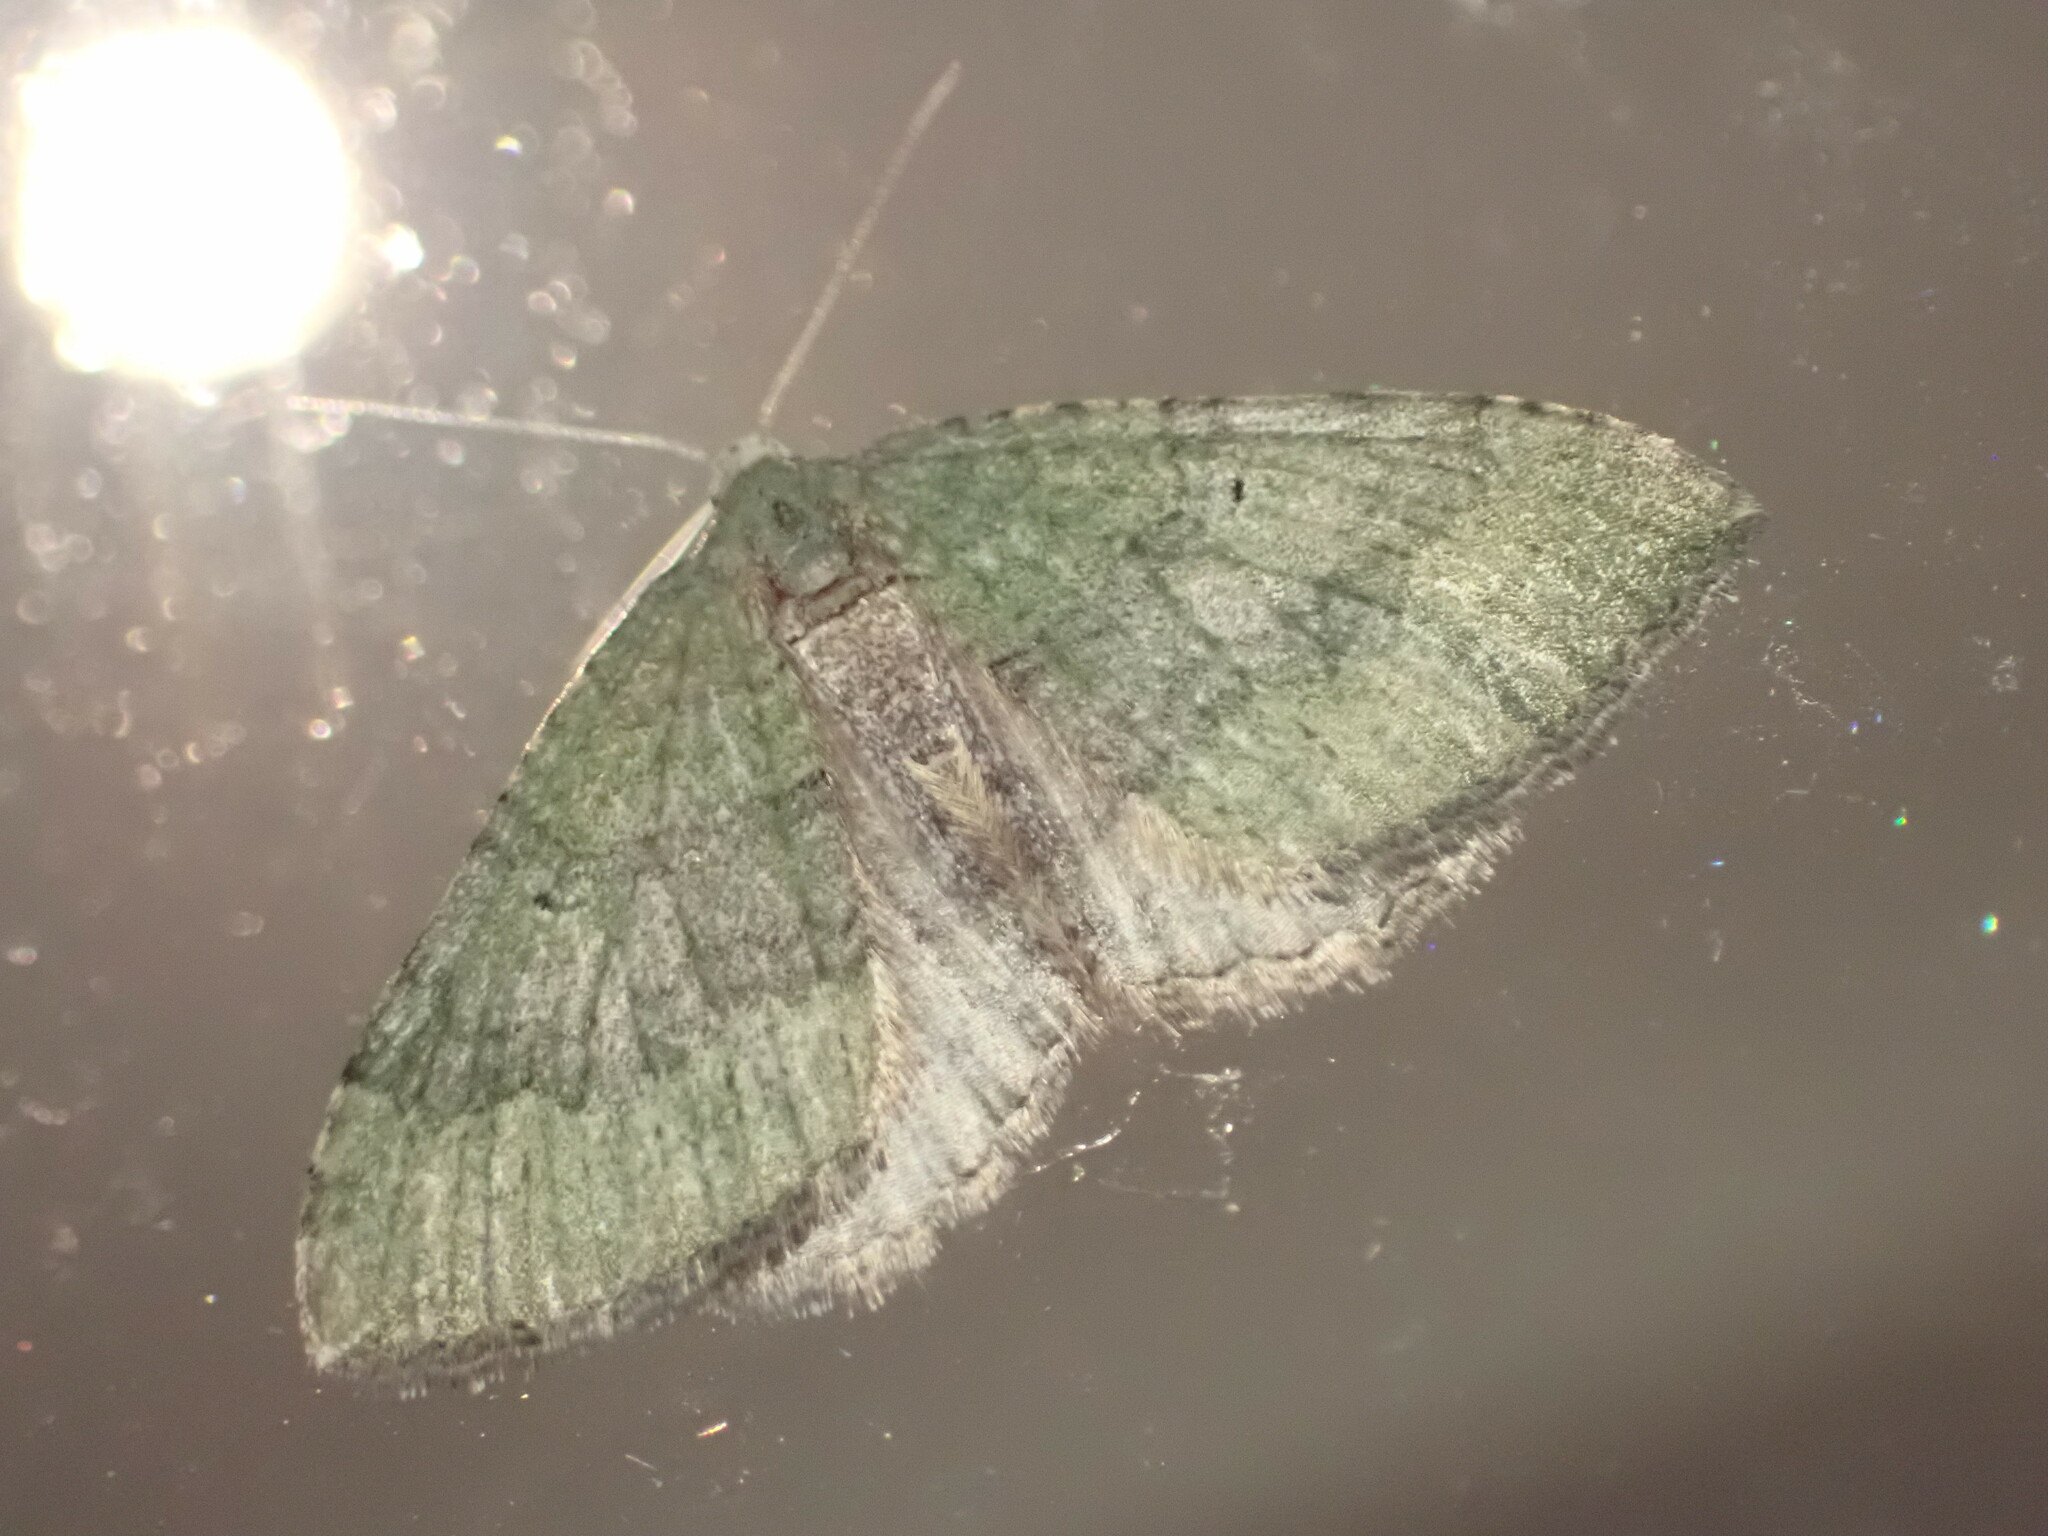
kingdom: Animalia
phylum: Arthropoda
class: Insecta
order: Lepidoptera
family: Geometridae
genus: Epyaxa
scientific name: Epyaxa rosearia
